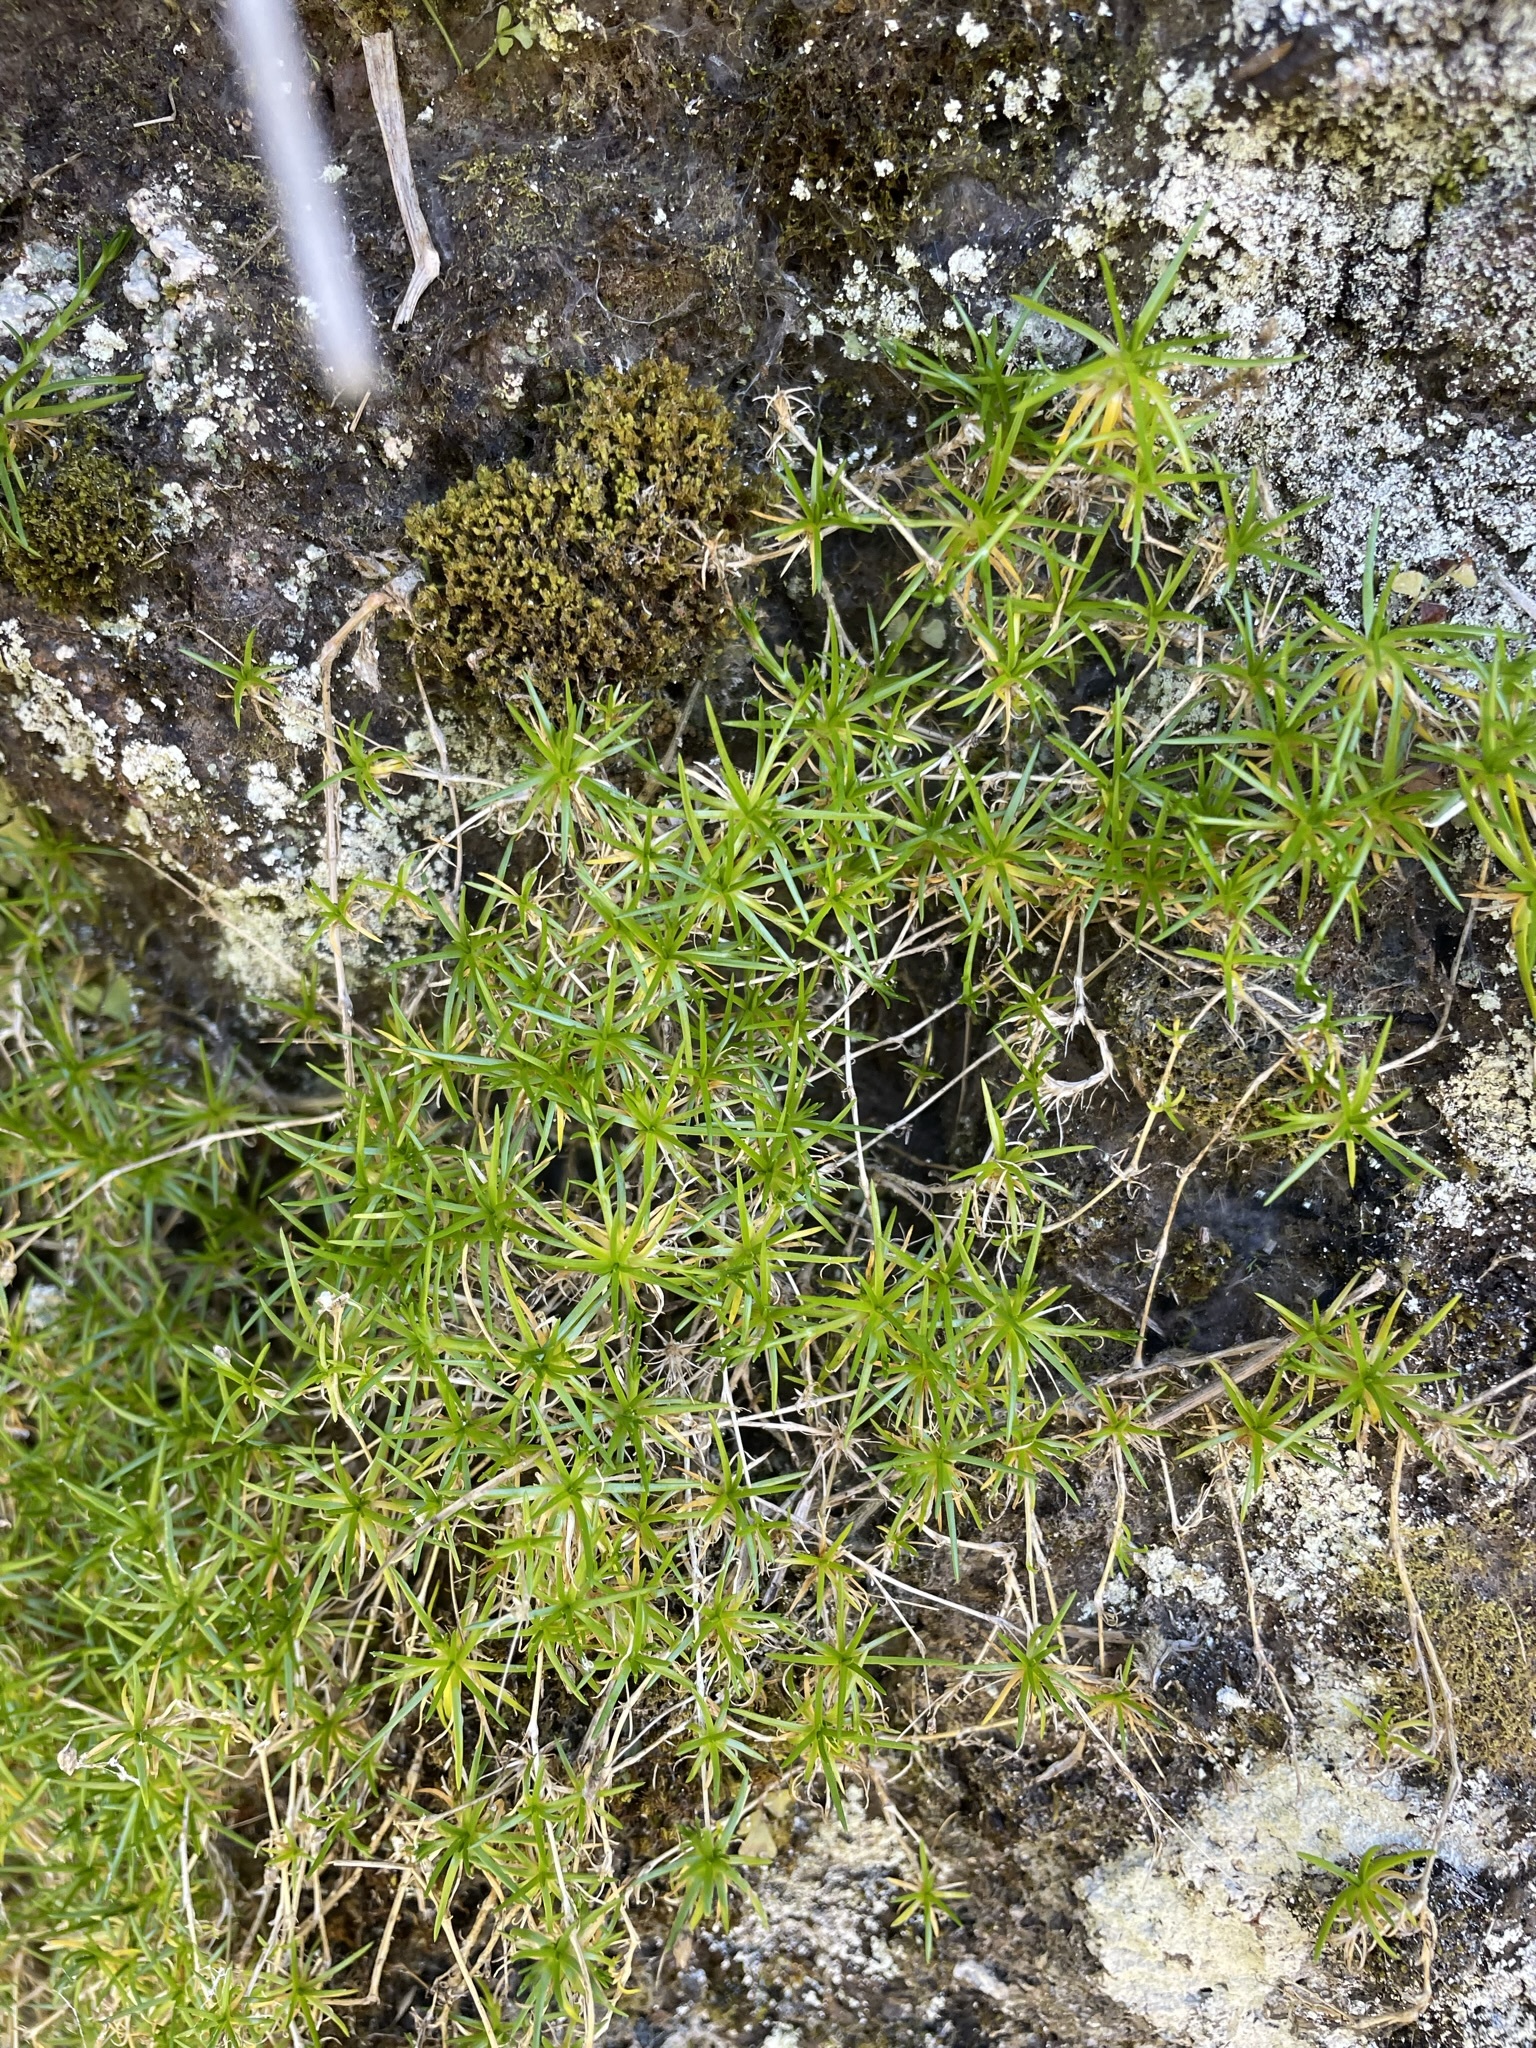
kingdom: Plantae
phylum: Tracheophyta
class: Magnoliopsida
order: Caryophyllales
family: Caryophyllaceae
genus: Sagina
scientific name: Sagina procumbens
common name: Procumbent pearlwort
